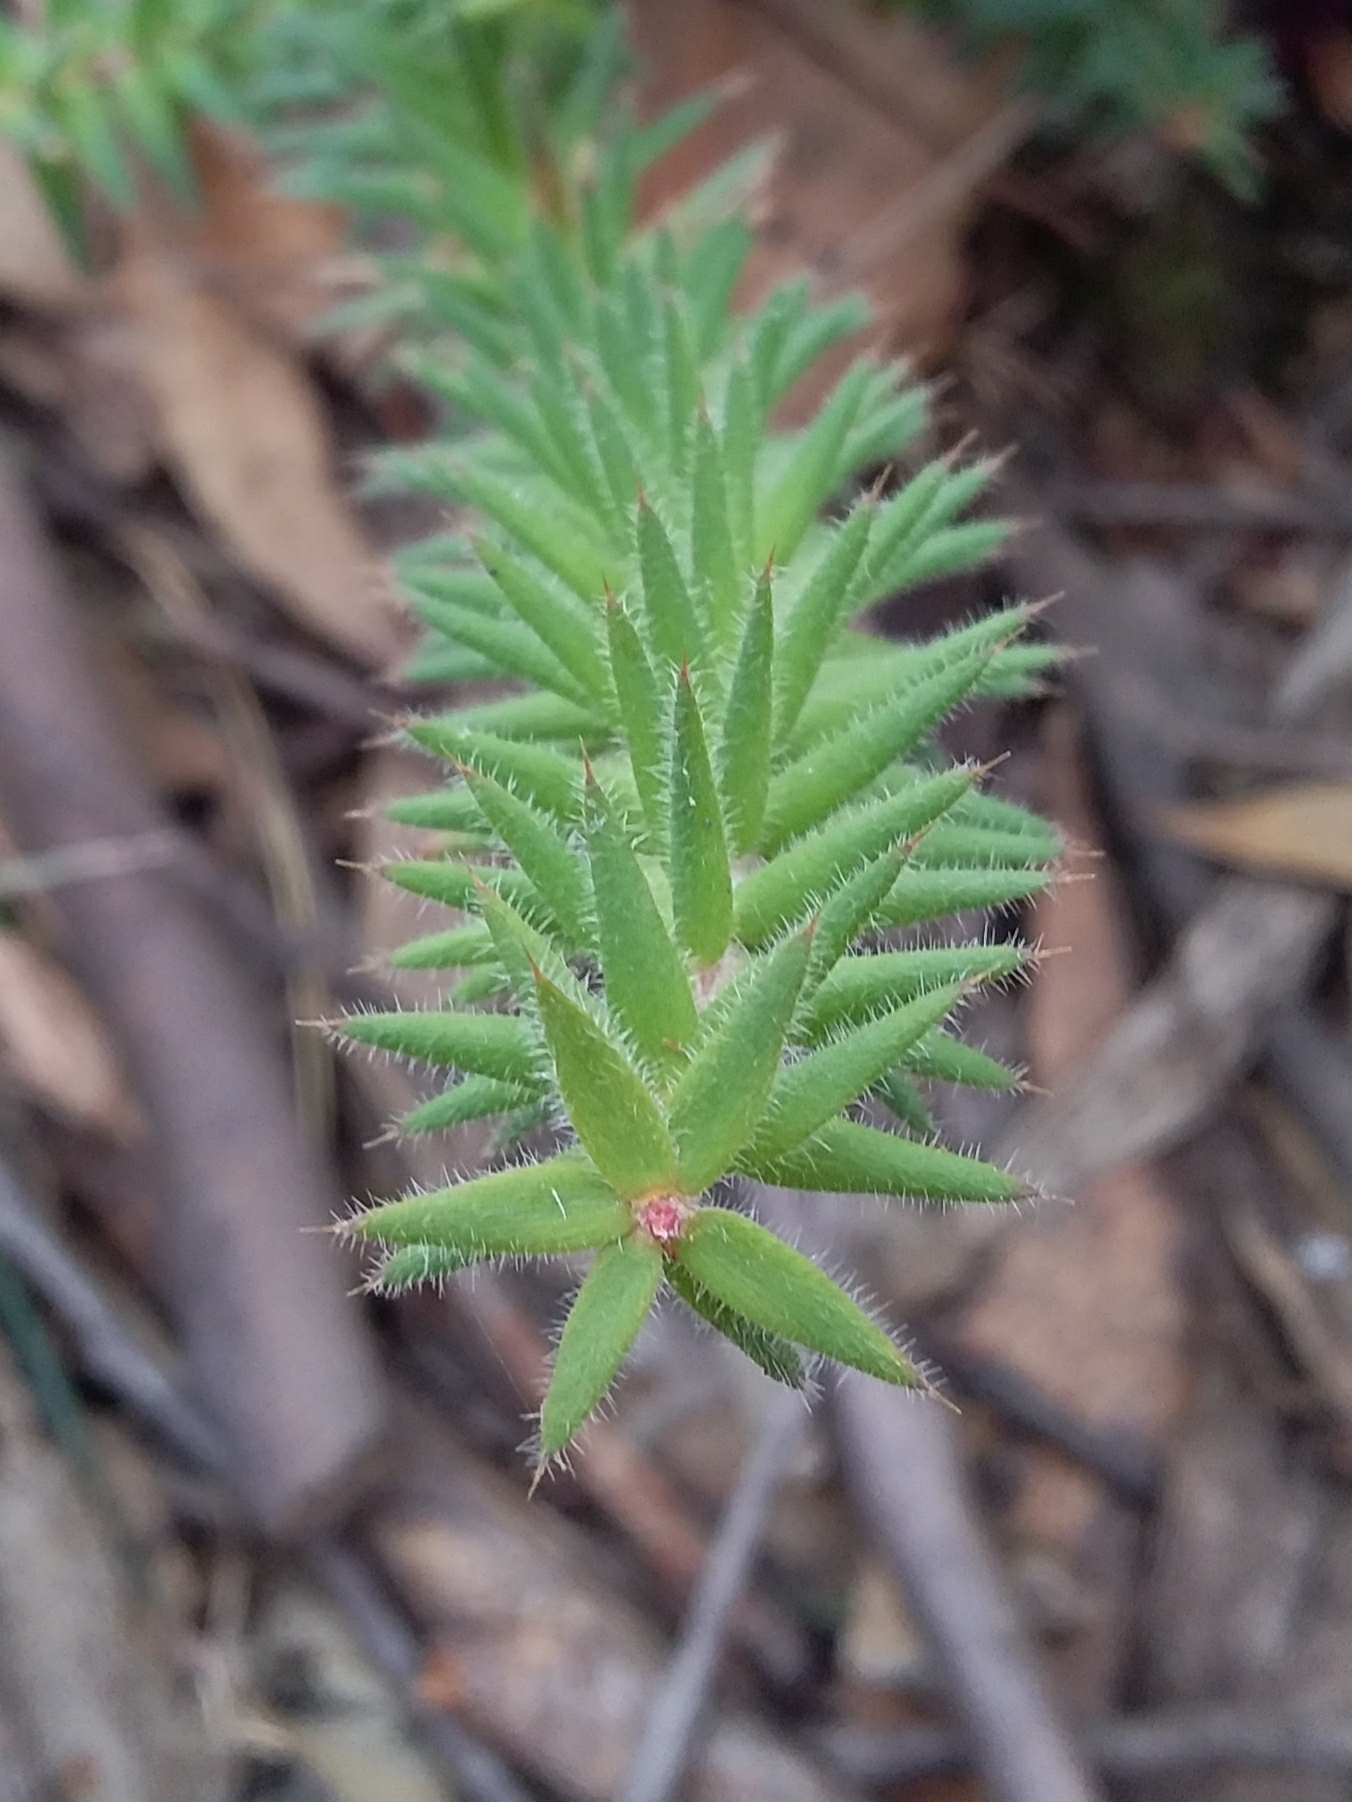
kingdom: Plantae
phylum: Tracheophyta
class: Magnoliopsida
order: Ericales
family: Ericaceae
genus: Acrotriche
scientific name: Acrotriche fasciculiflora
